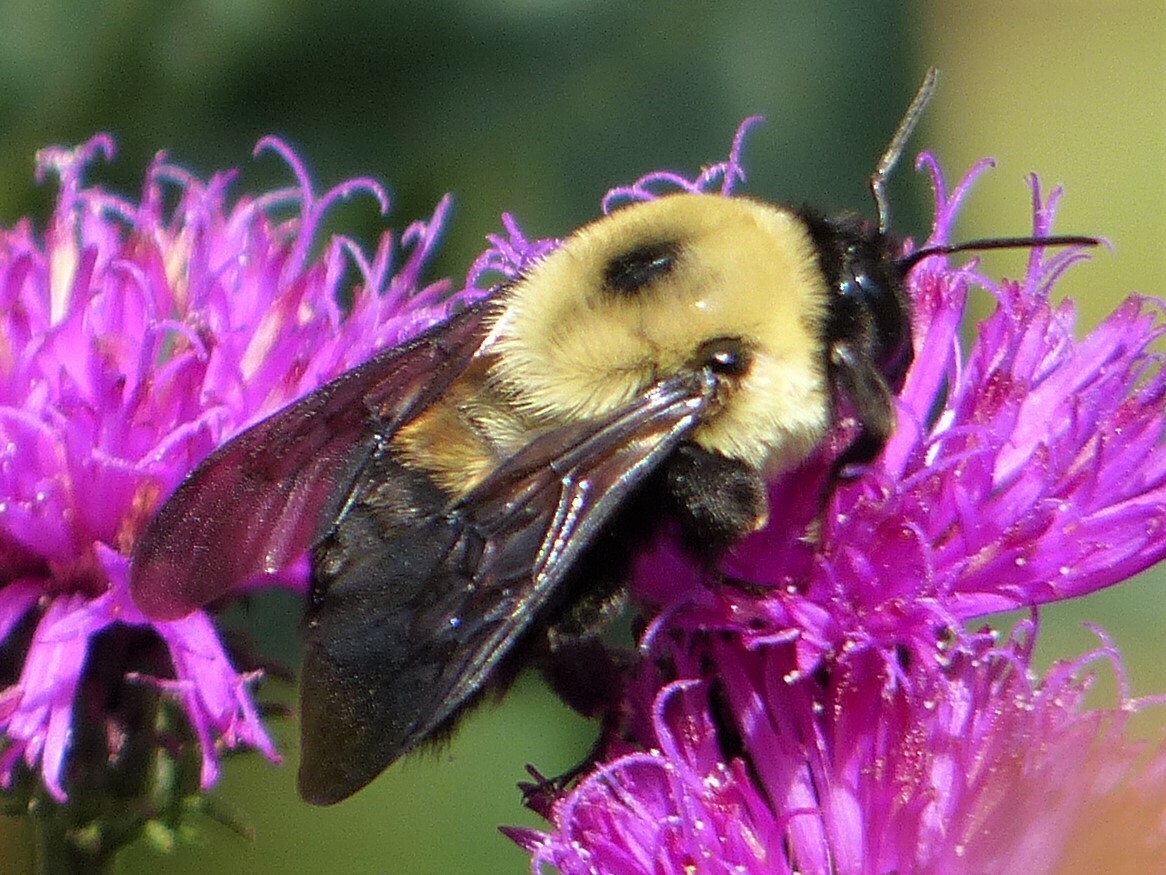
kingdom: Animalia
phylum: Arthropoda
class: Insecta
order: Hymenoptera
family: Apidae
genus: Bombus
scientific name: Bombus griseocollis
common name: Brown-belted bumble bee
